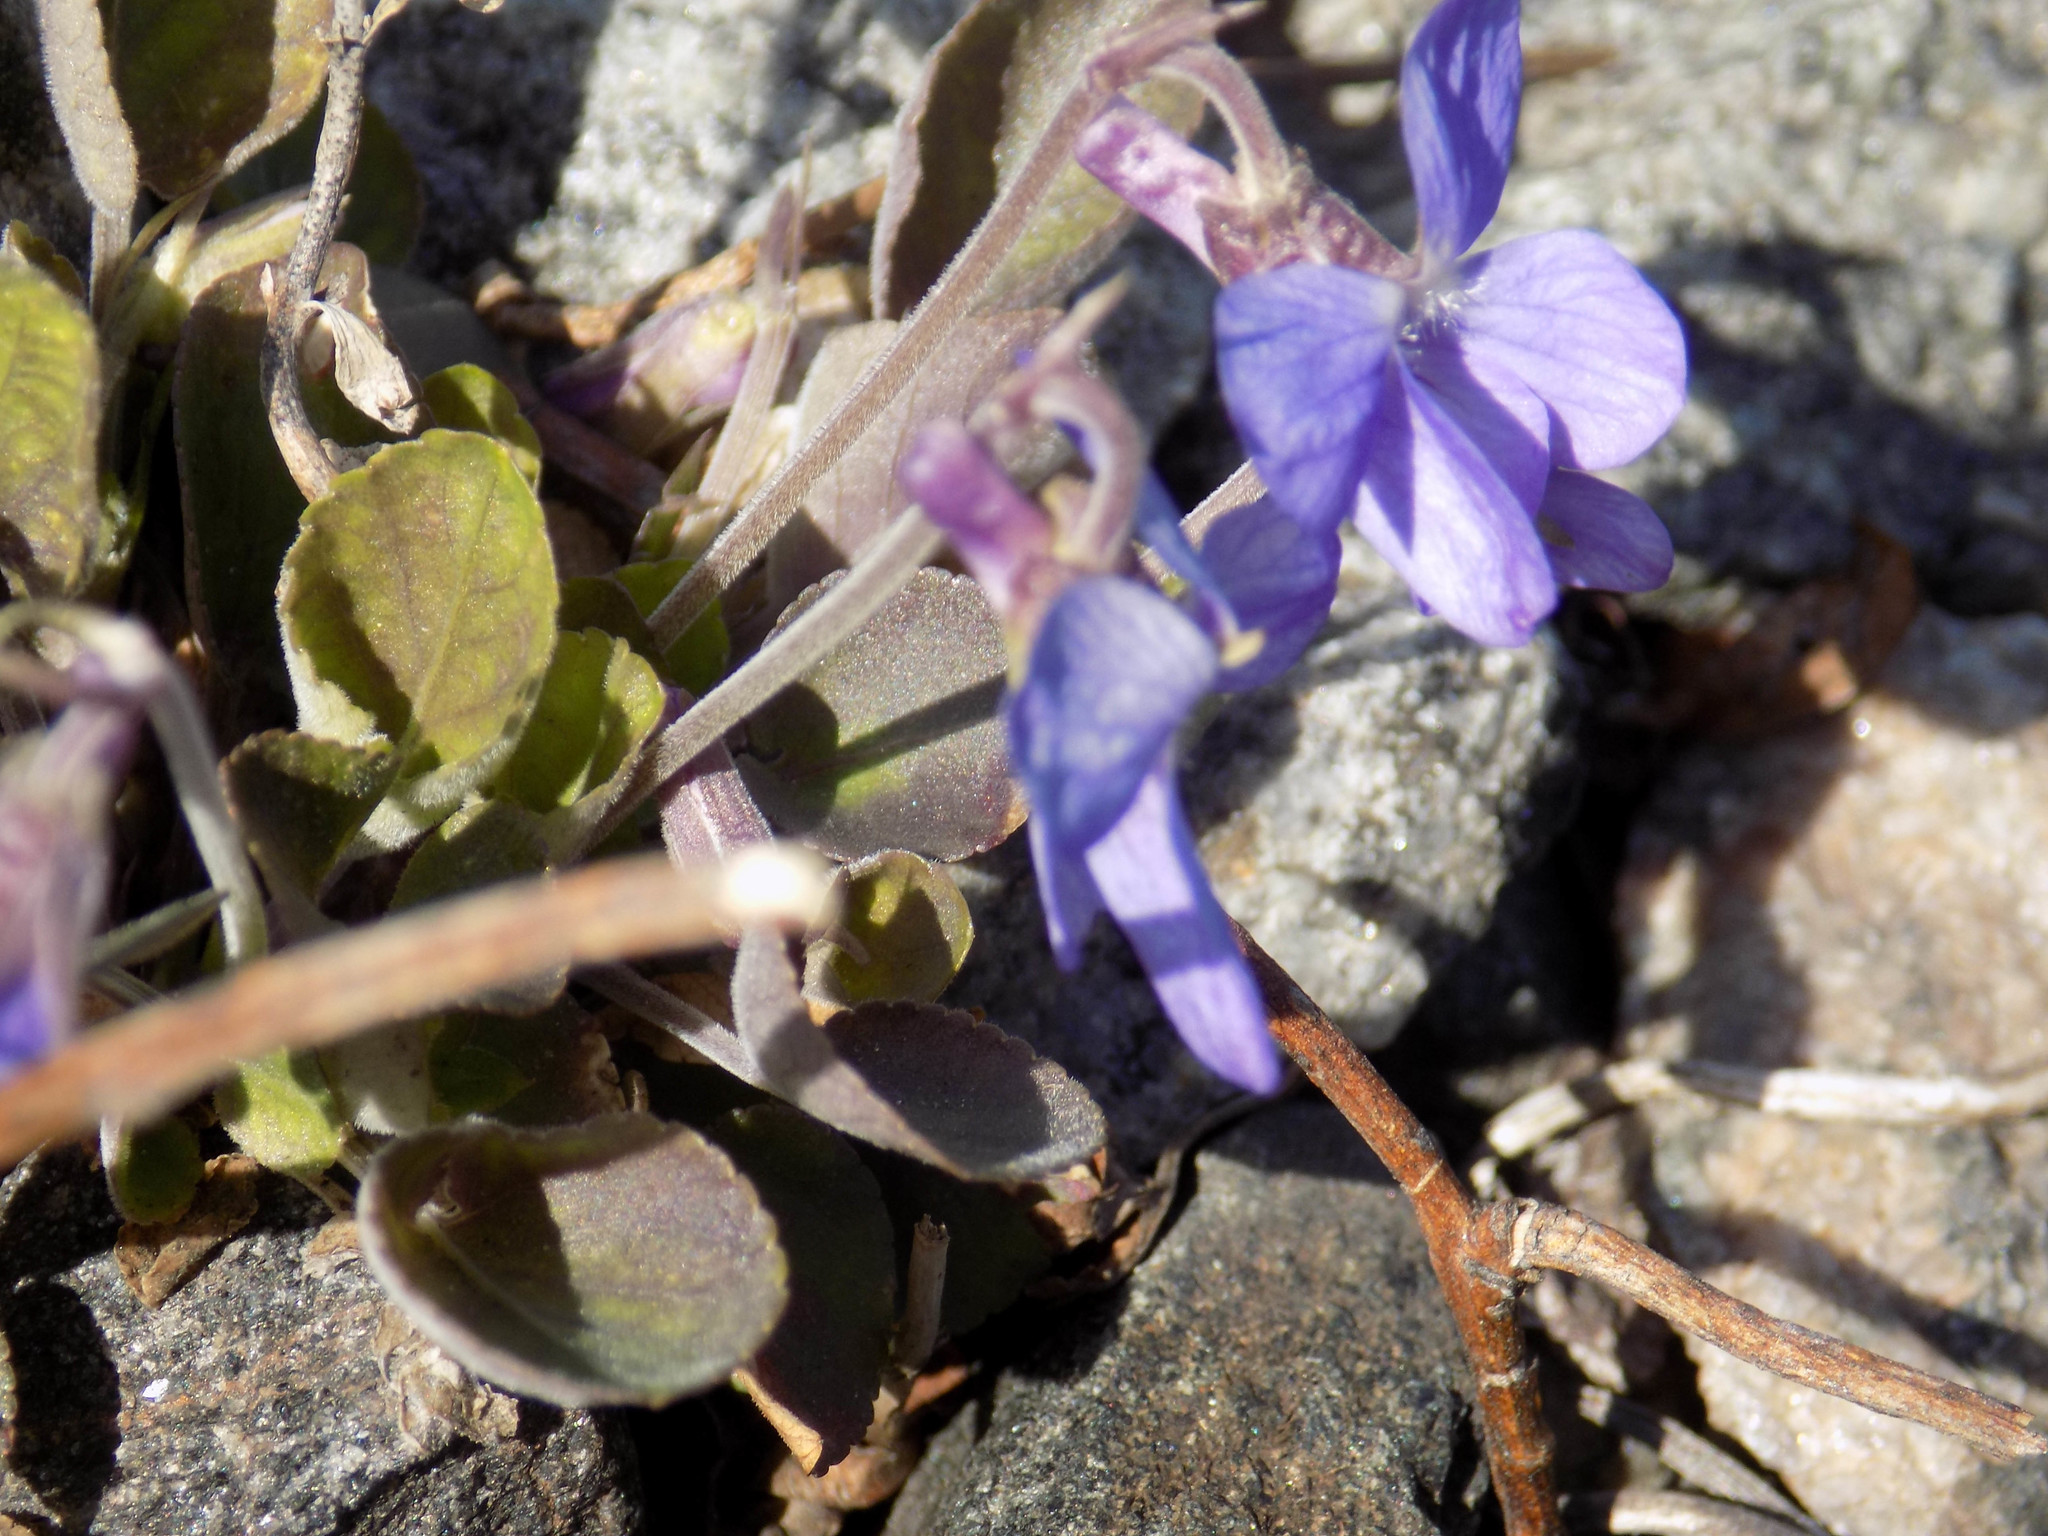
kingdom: Plantae
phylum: Tracheophyta
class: Magnoliopsida
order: Malpighiales
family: Violaceae
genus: Viola
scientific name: Viola rupestris
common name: Teesdale violet
